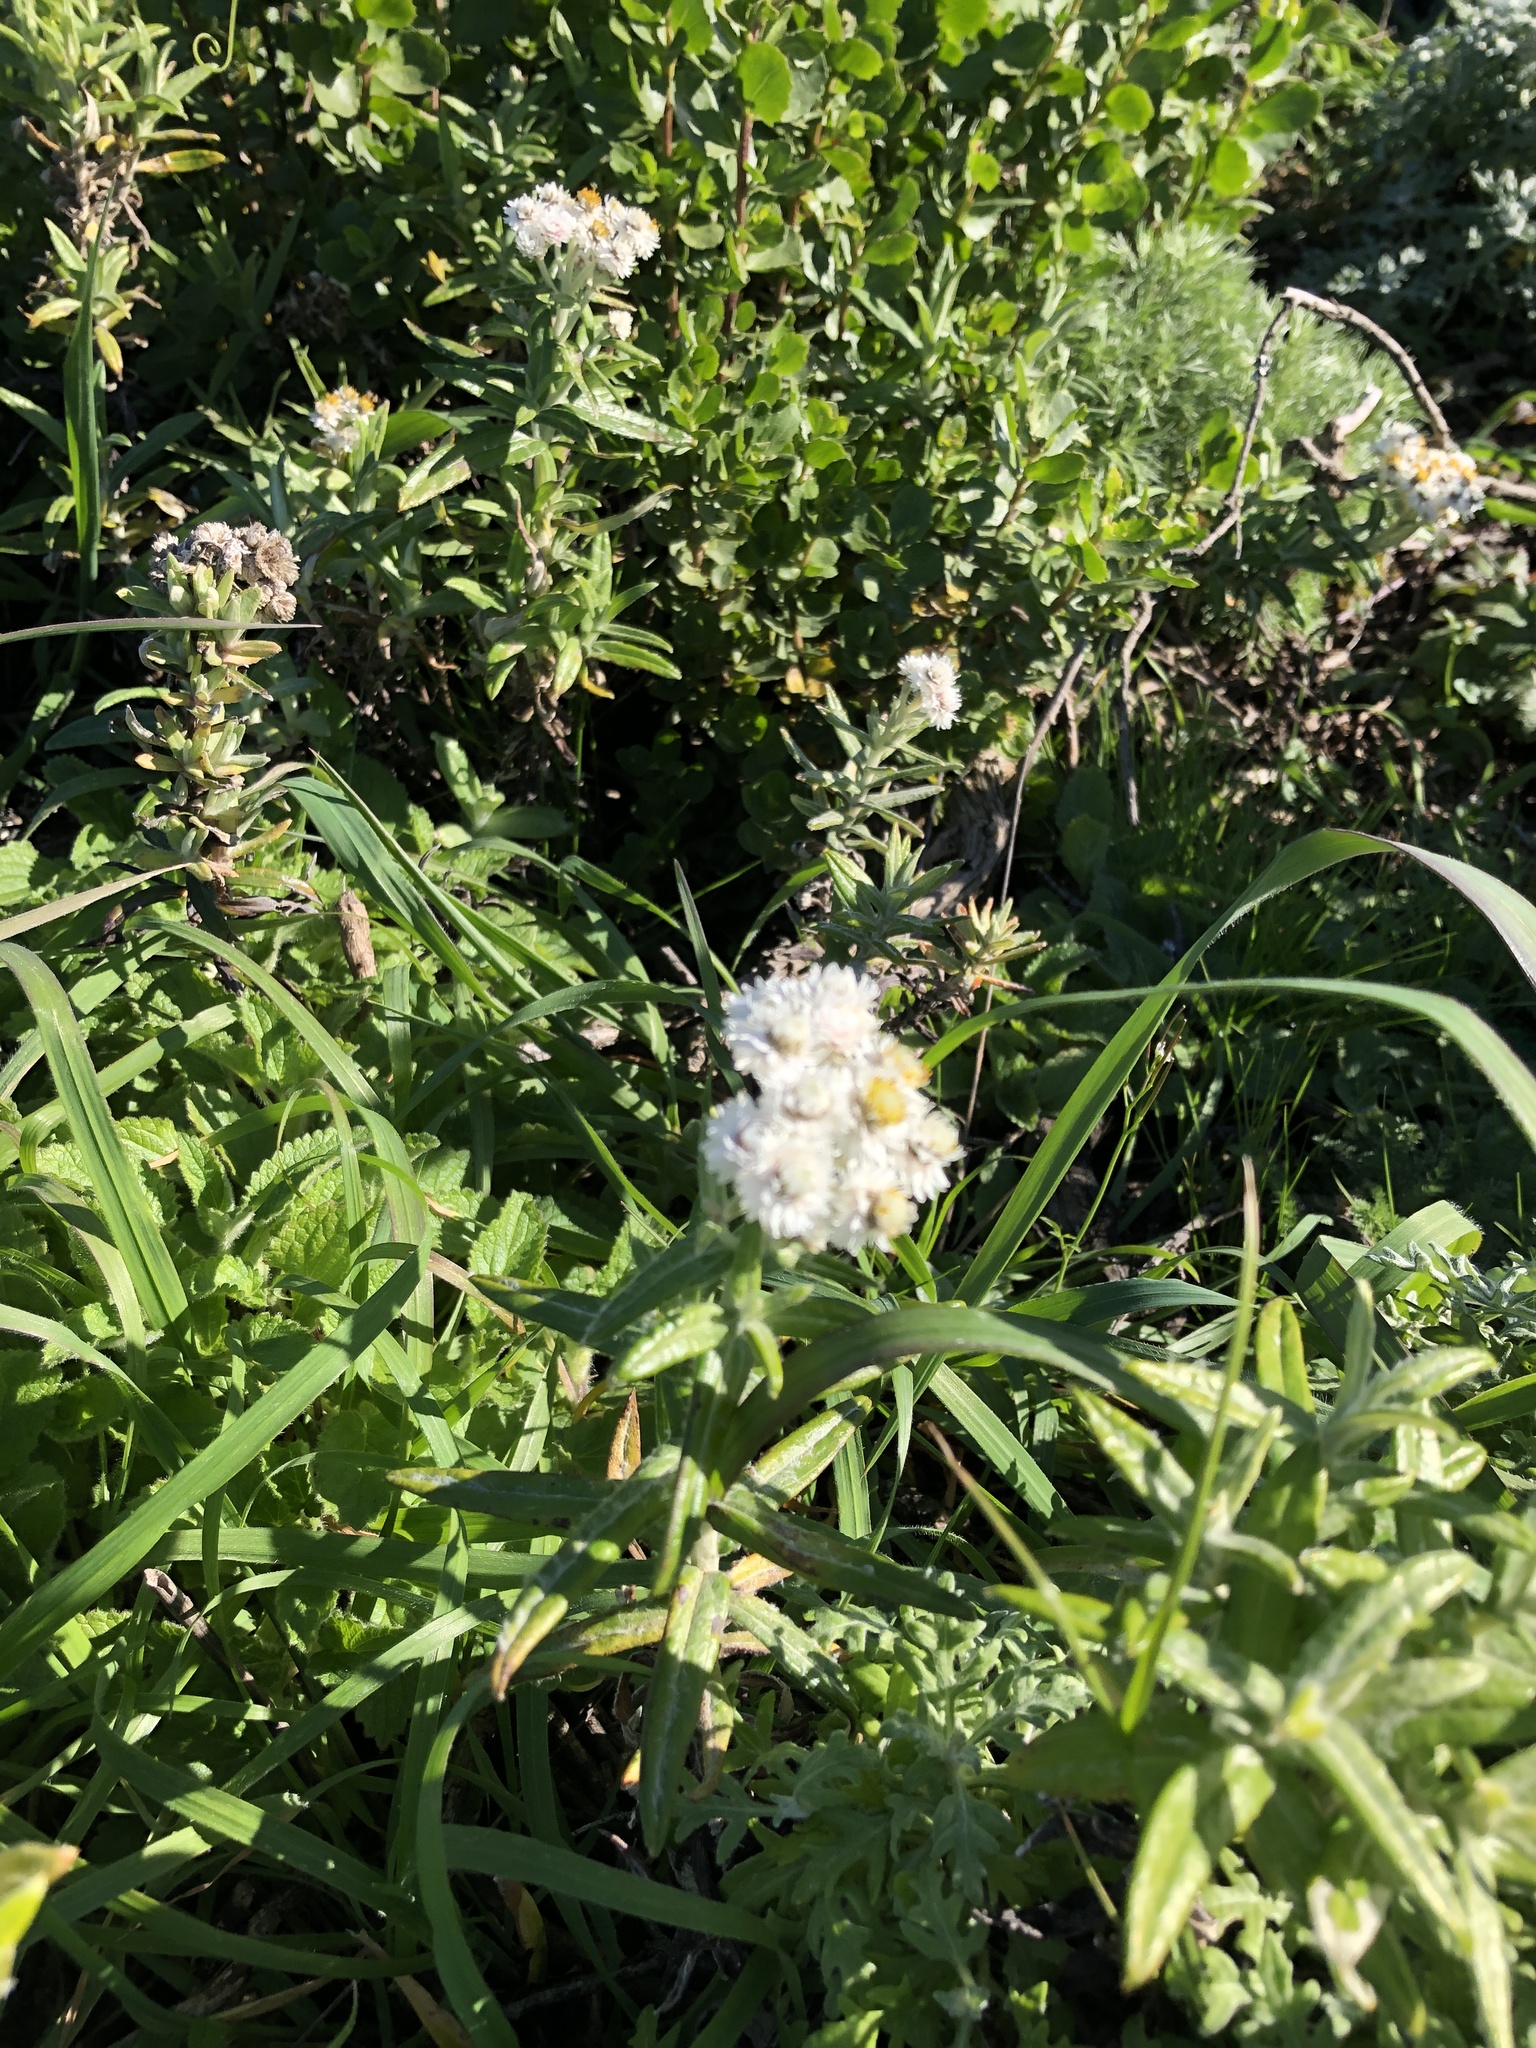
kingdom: Plantae
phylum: Tracheophyta
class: Magnoliopsida
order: Asterales
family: Asteraceae
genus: Anaphalis
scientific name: Anaphalis margaritacea
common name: Pearly everlasting
